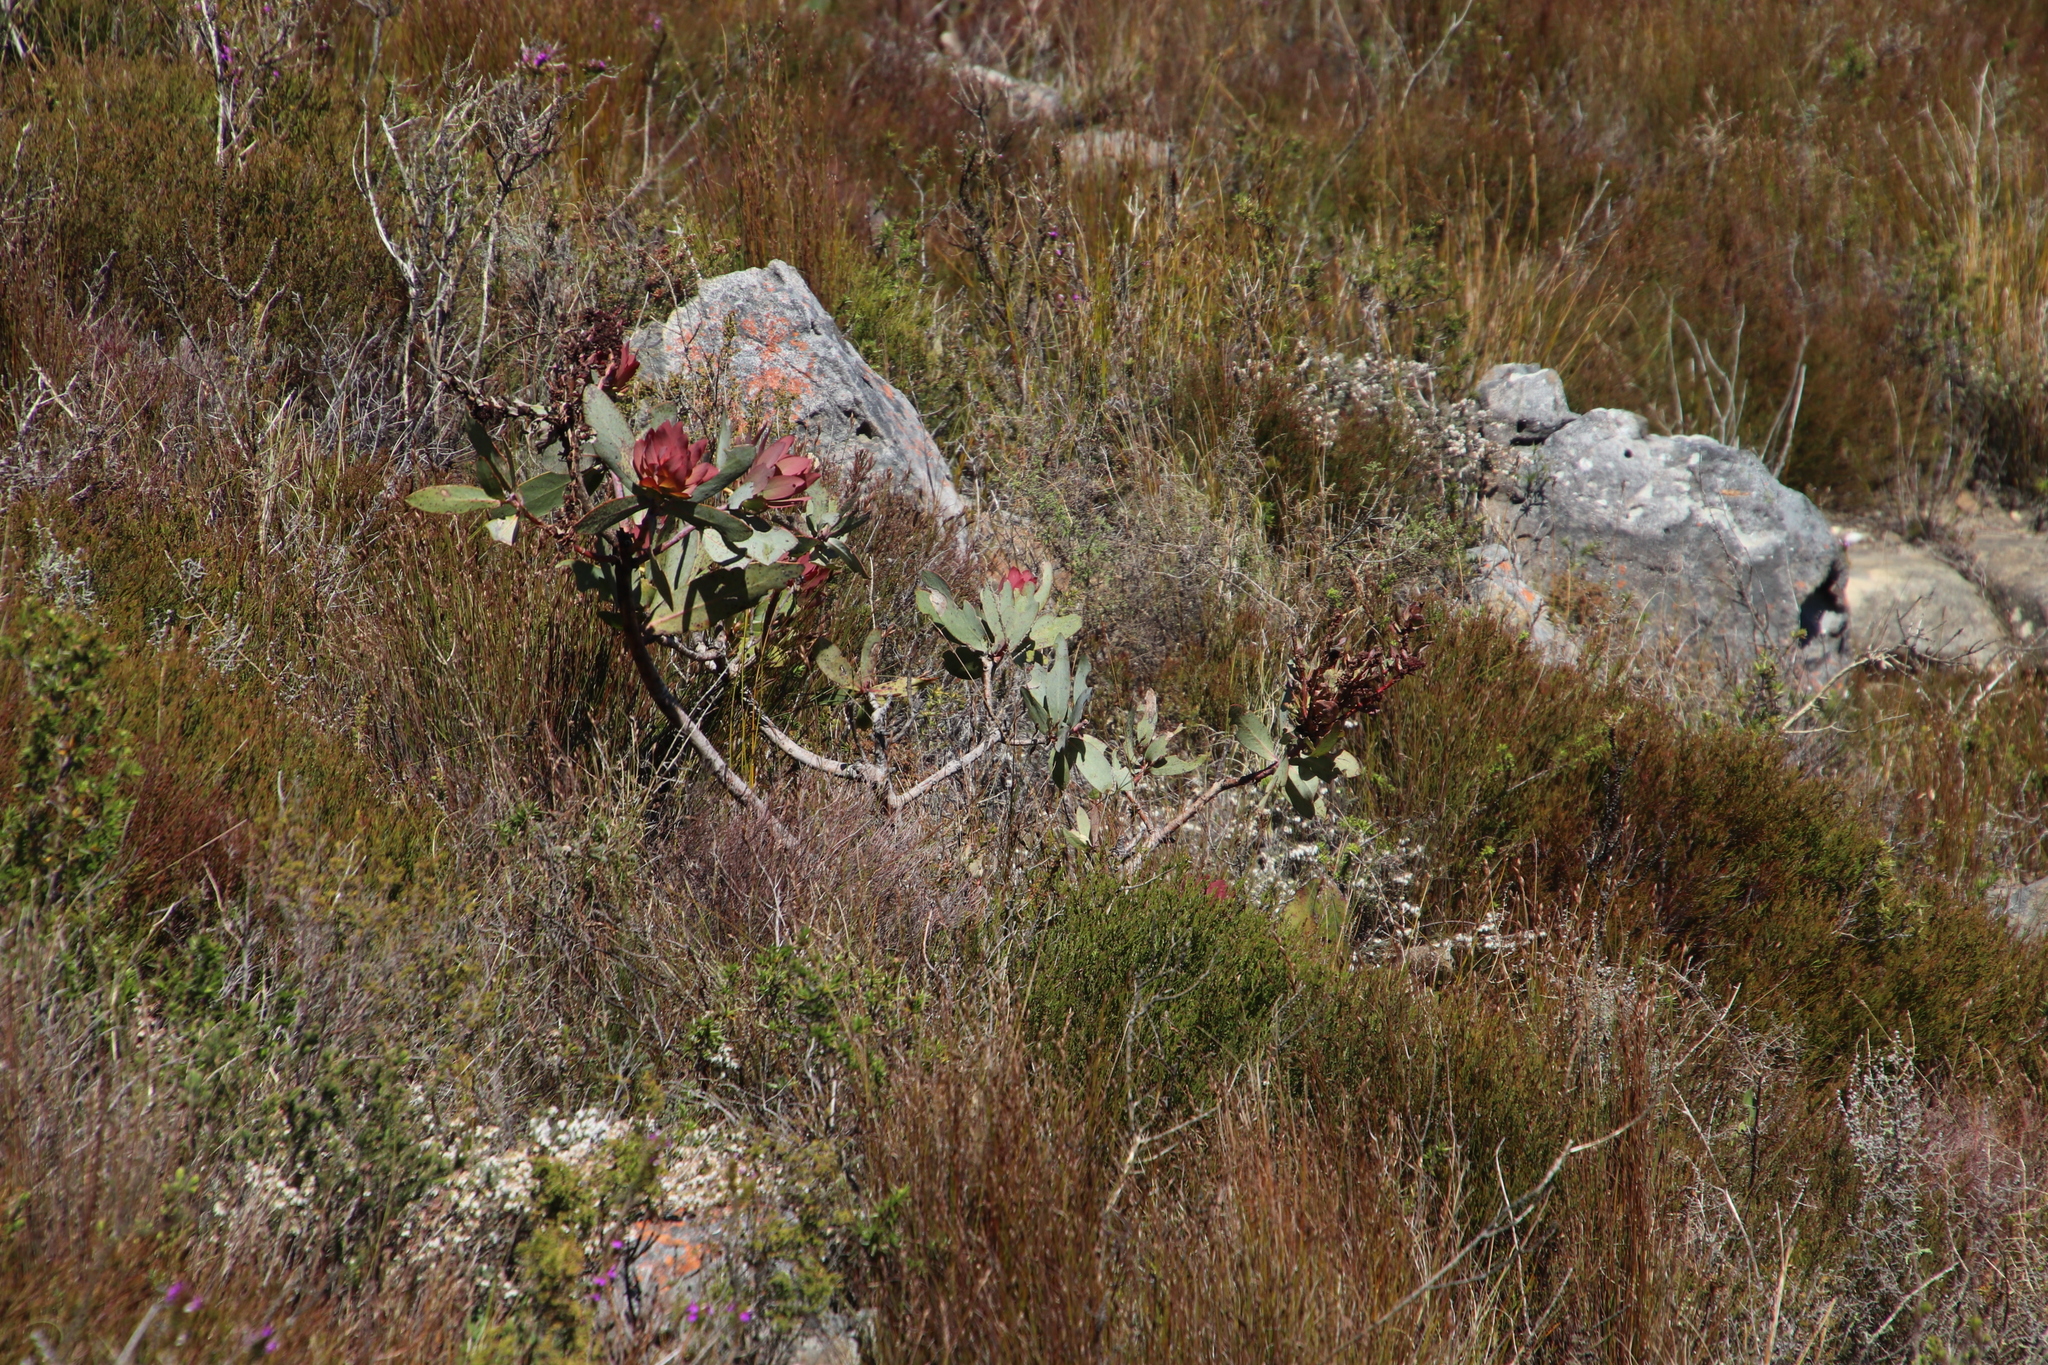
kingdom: Plantae
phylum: Tracheophyta
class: Magnoliopsida
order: Proteales
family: Proteaceae
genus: Protea
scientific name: Protea nitida
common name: Tree protea
